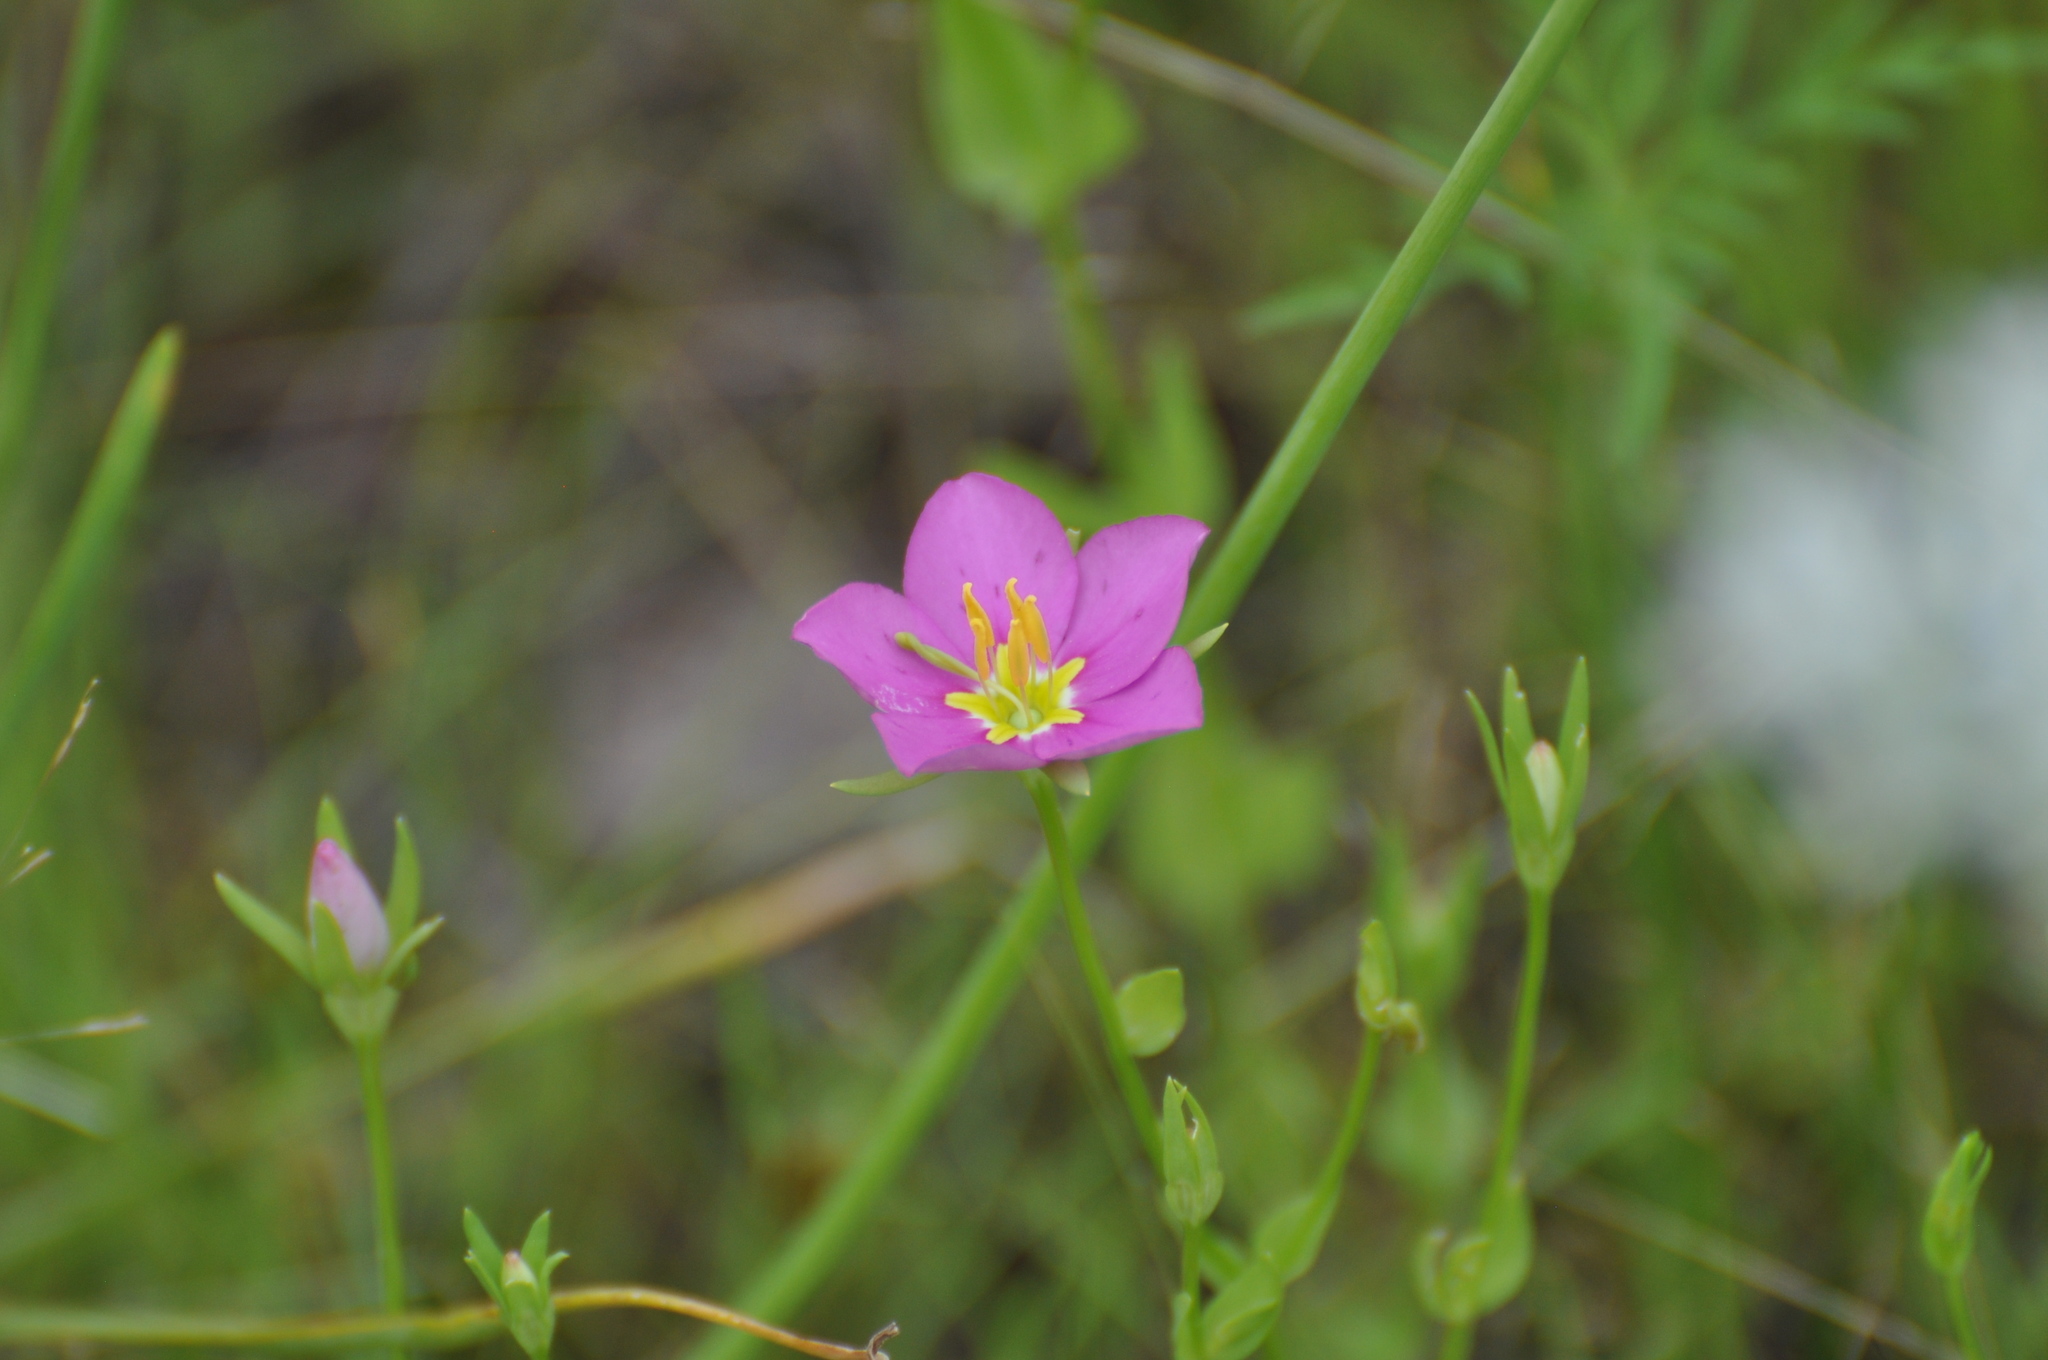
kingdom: Plantae
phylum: Tracheophyta
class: Magnoliopsida
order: Gentianales
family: Gentianaceae
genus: Sabatia
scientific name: Sabatia campestris
